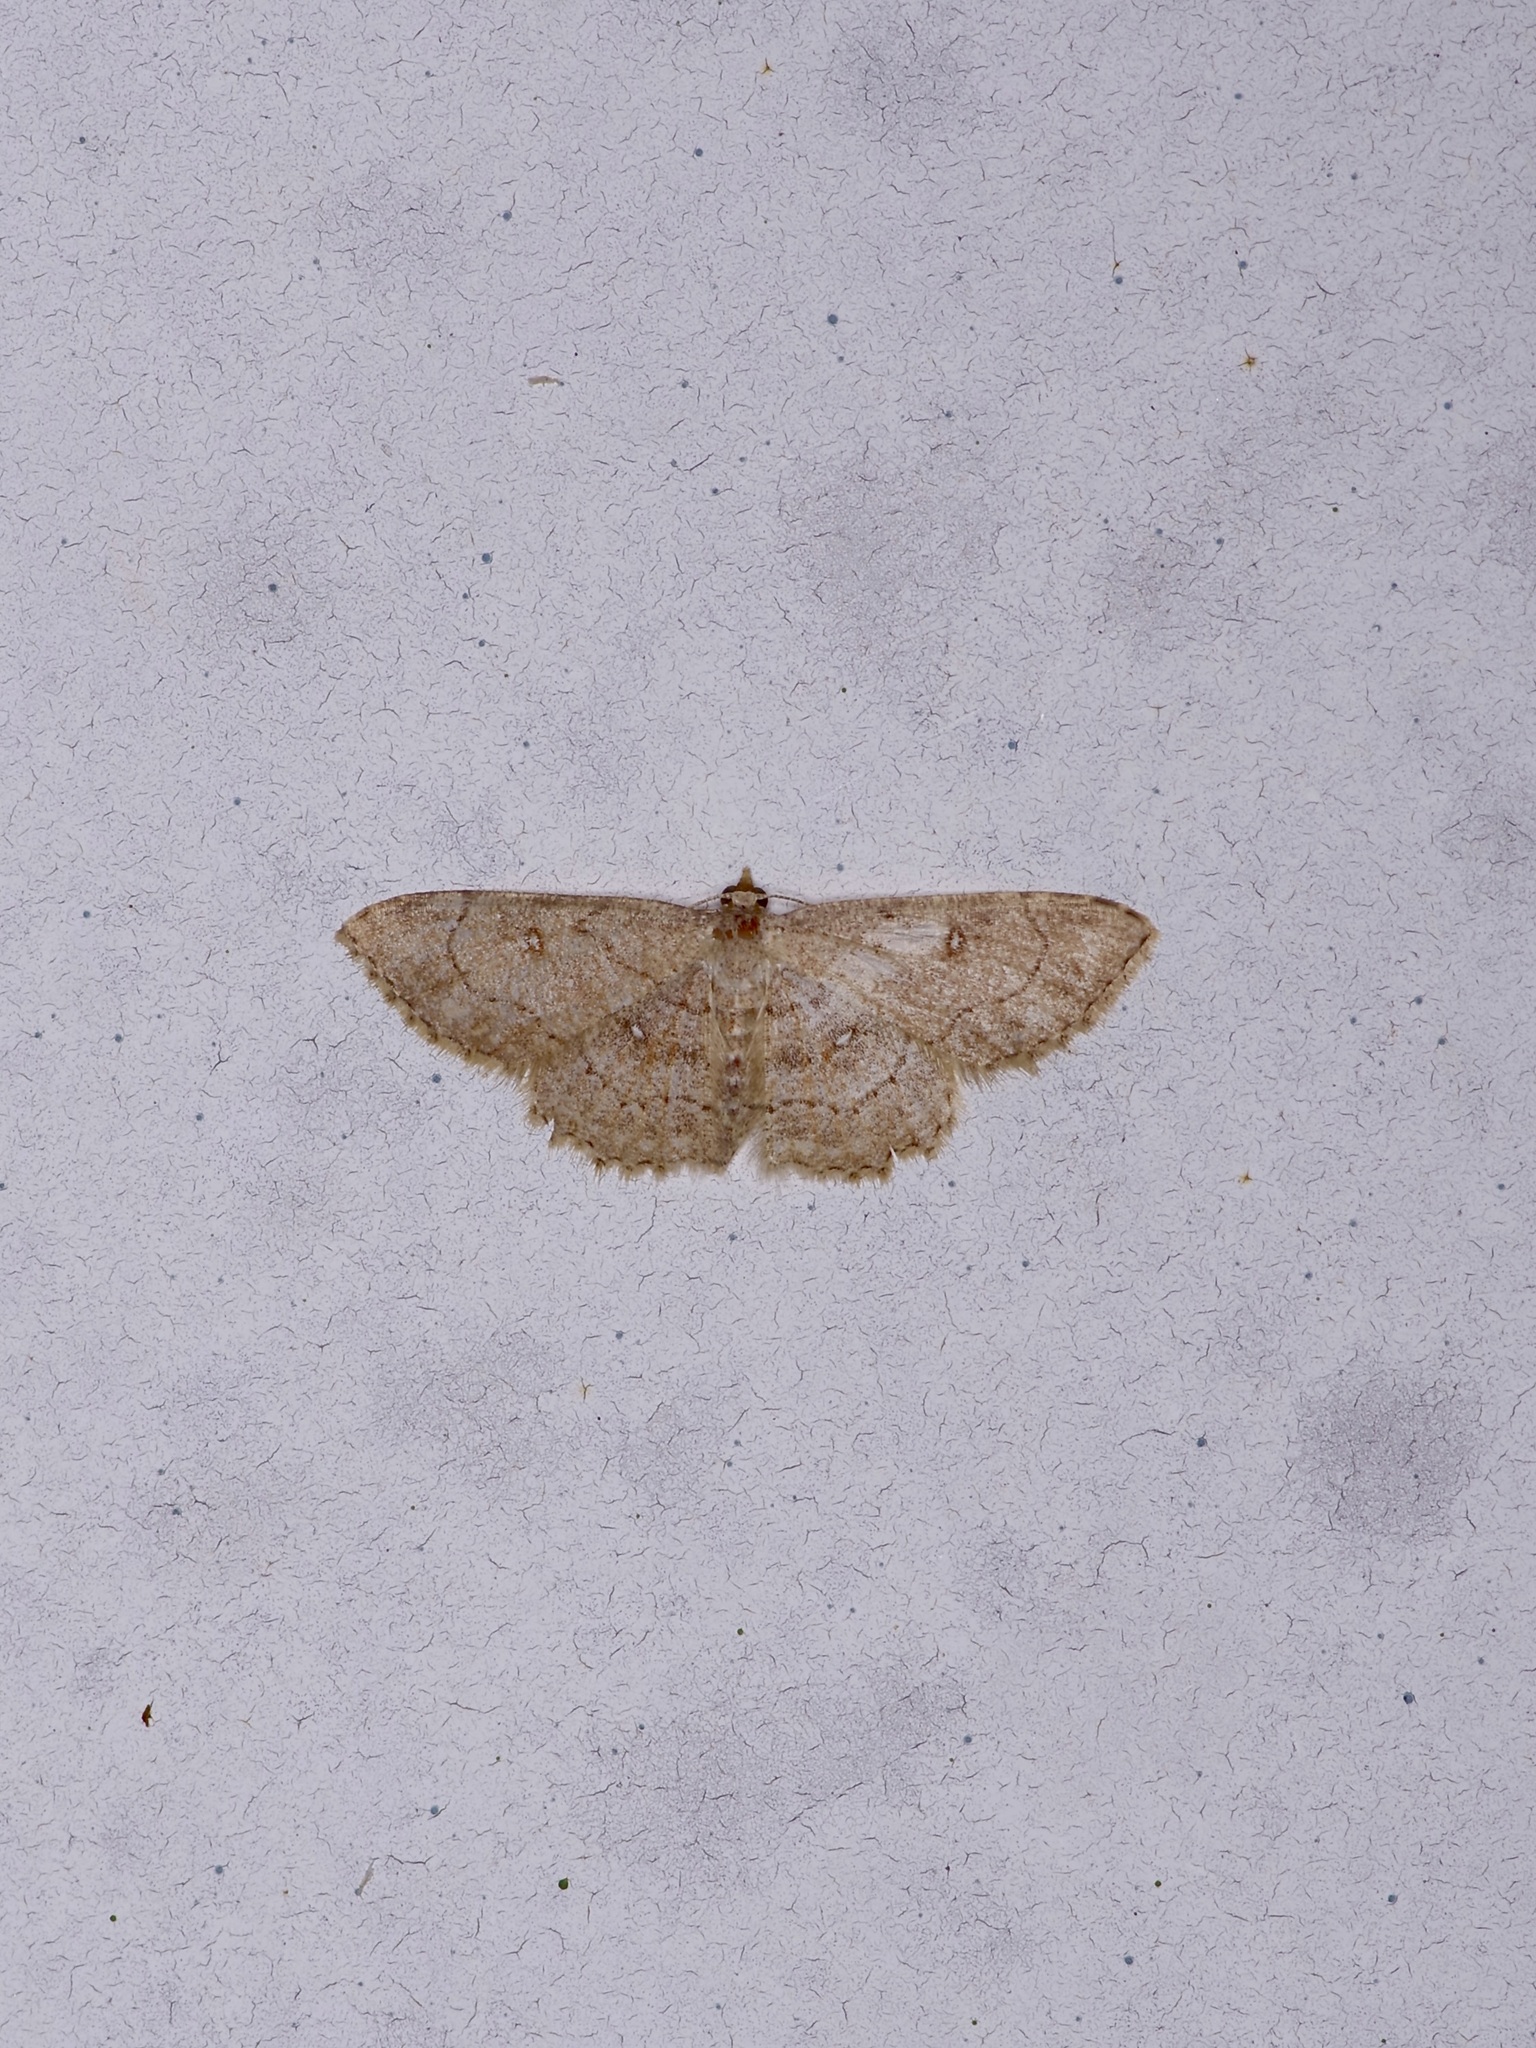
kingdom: Animalia
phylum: Arthropoda
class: Insecta
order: Lepidoptera
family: Geometridae
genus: Cyclophora
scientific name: Cyclophora nanaria
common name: Cankerworm
